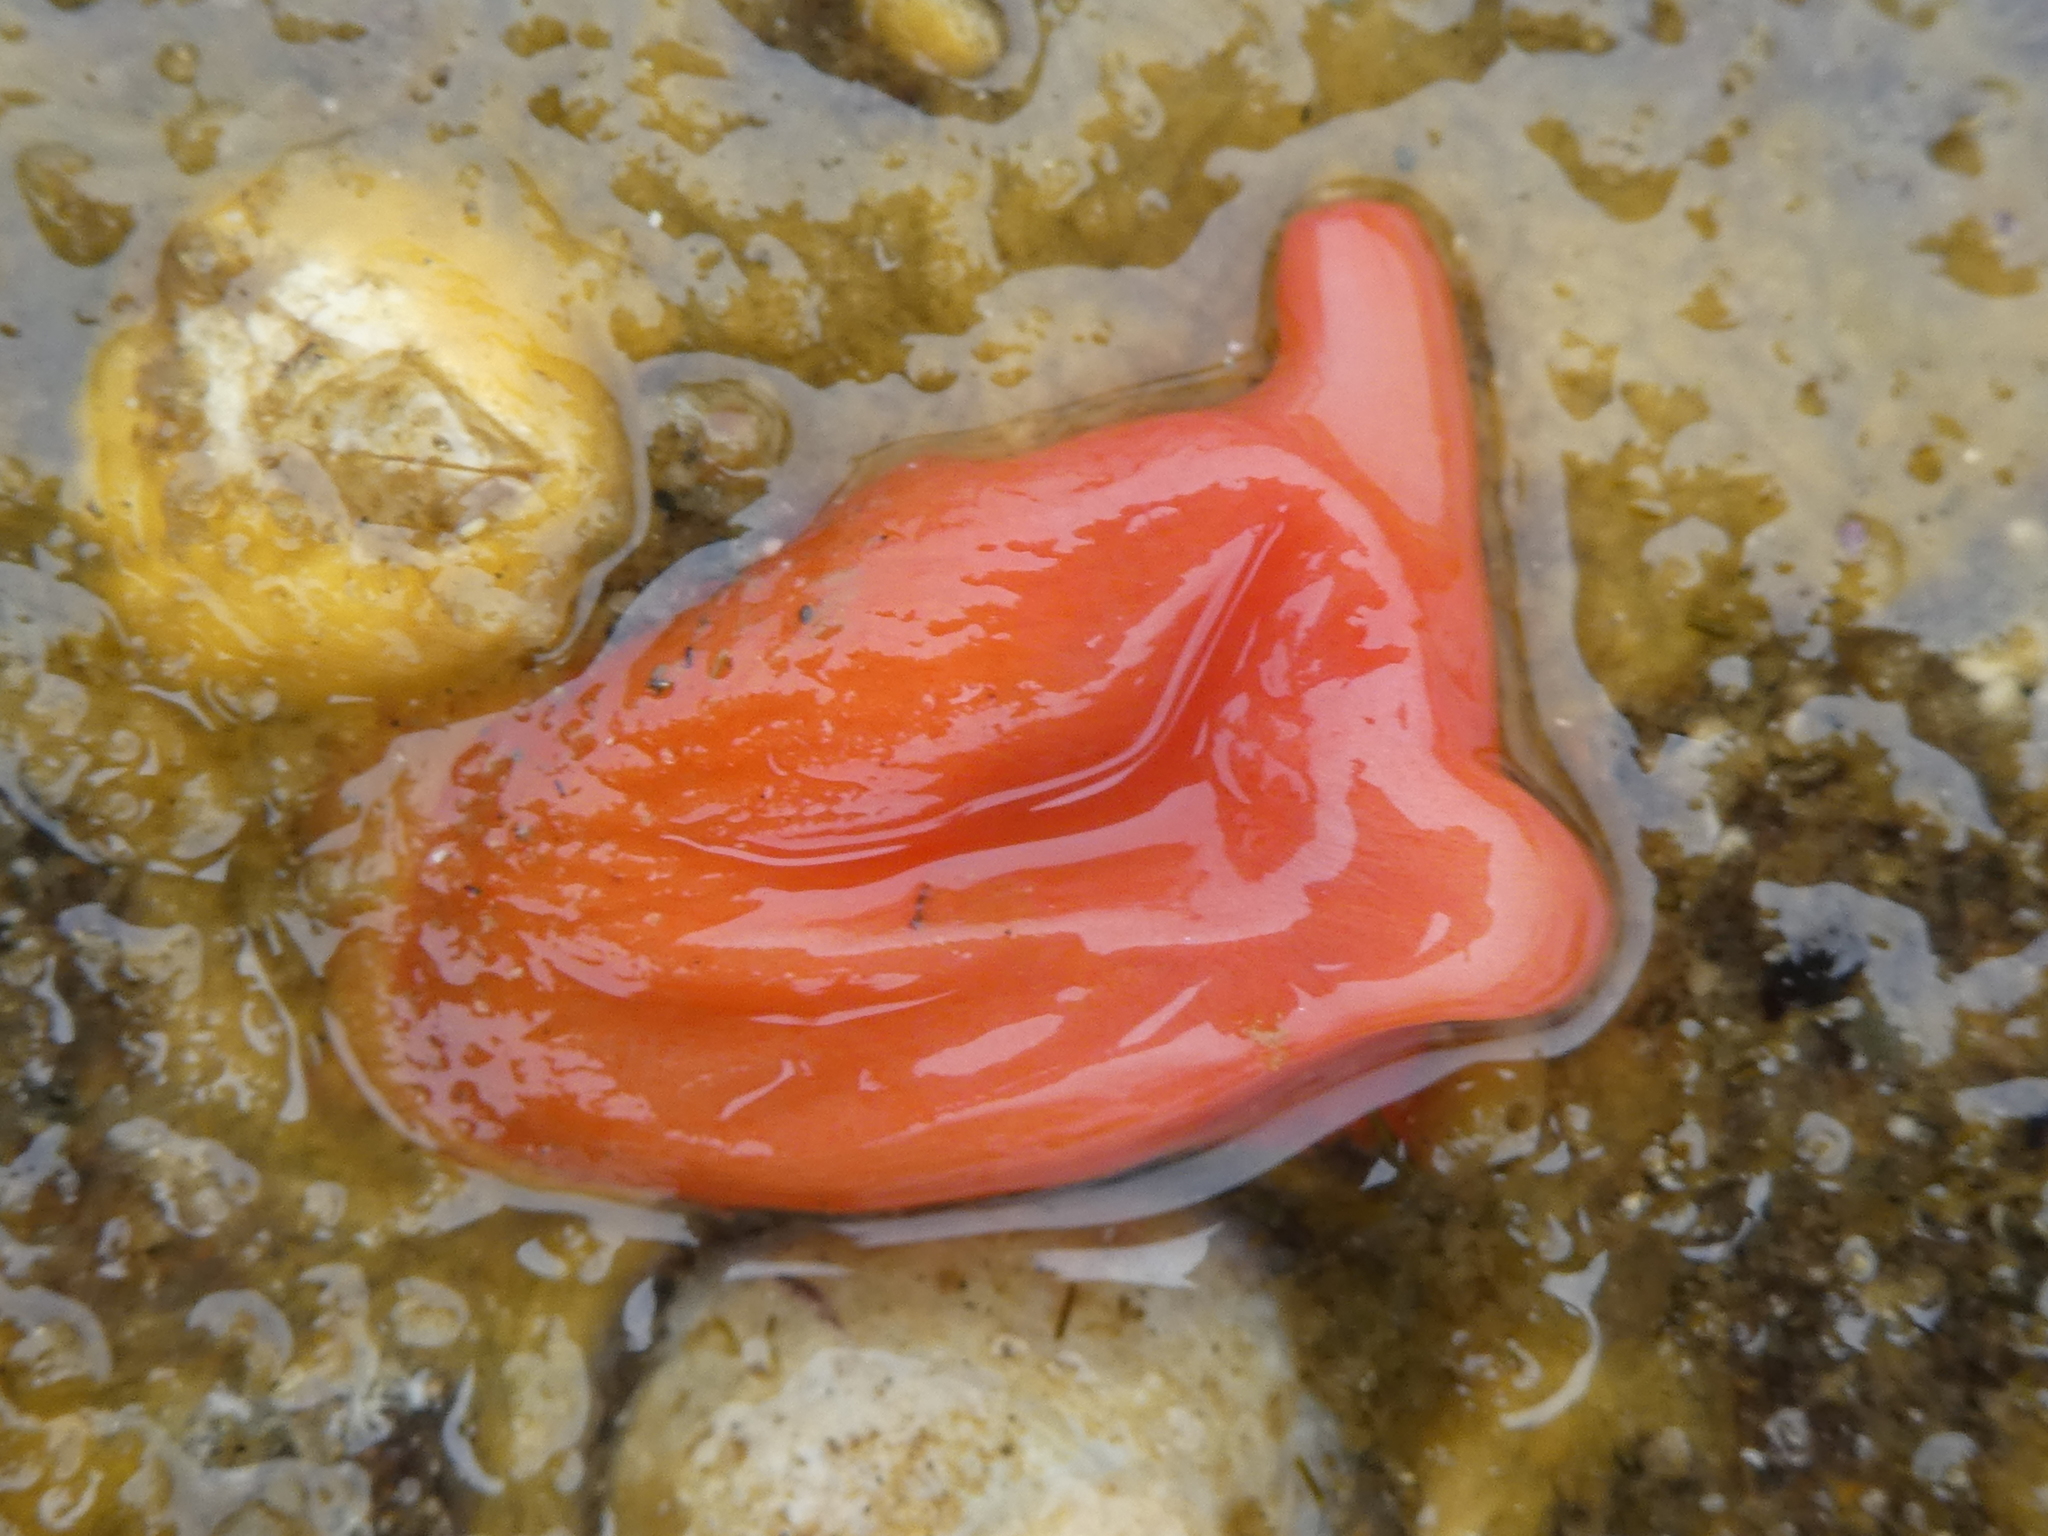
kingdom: Animalia
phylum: Chordata
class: Ascidiacea
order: Stolidobranchia
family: Styelidae
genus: Cnemidocarpa
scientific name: Cnemidocarpa finmarkiensis
